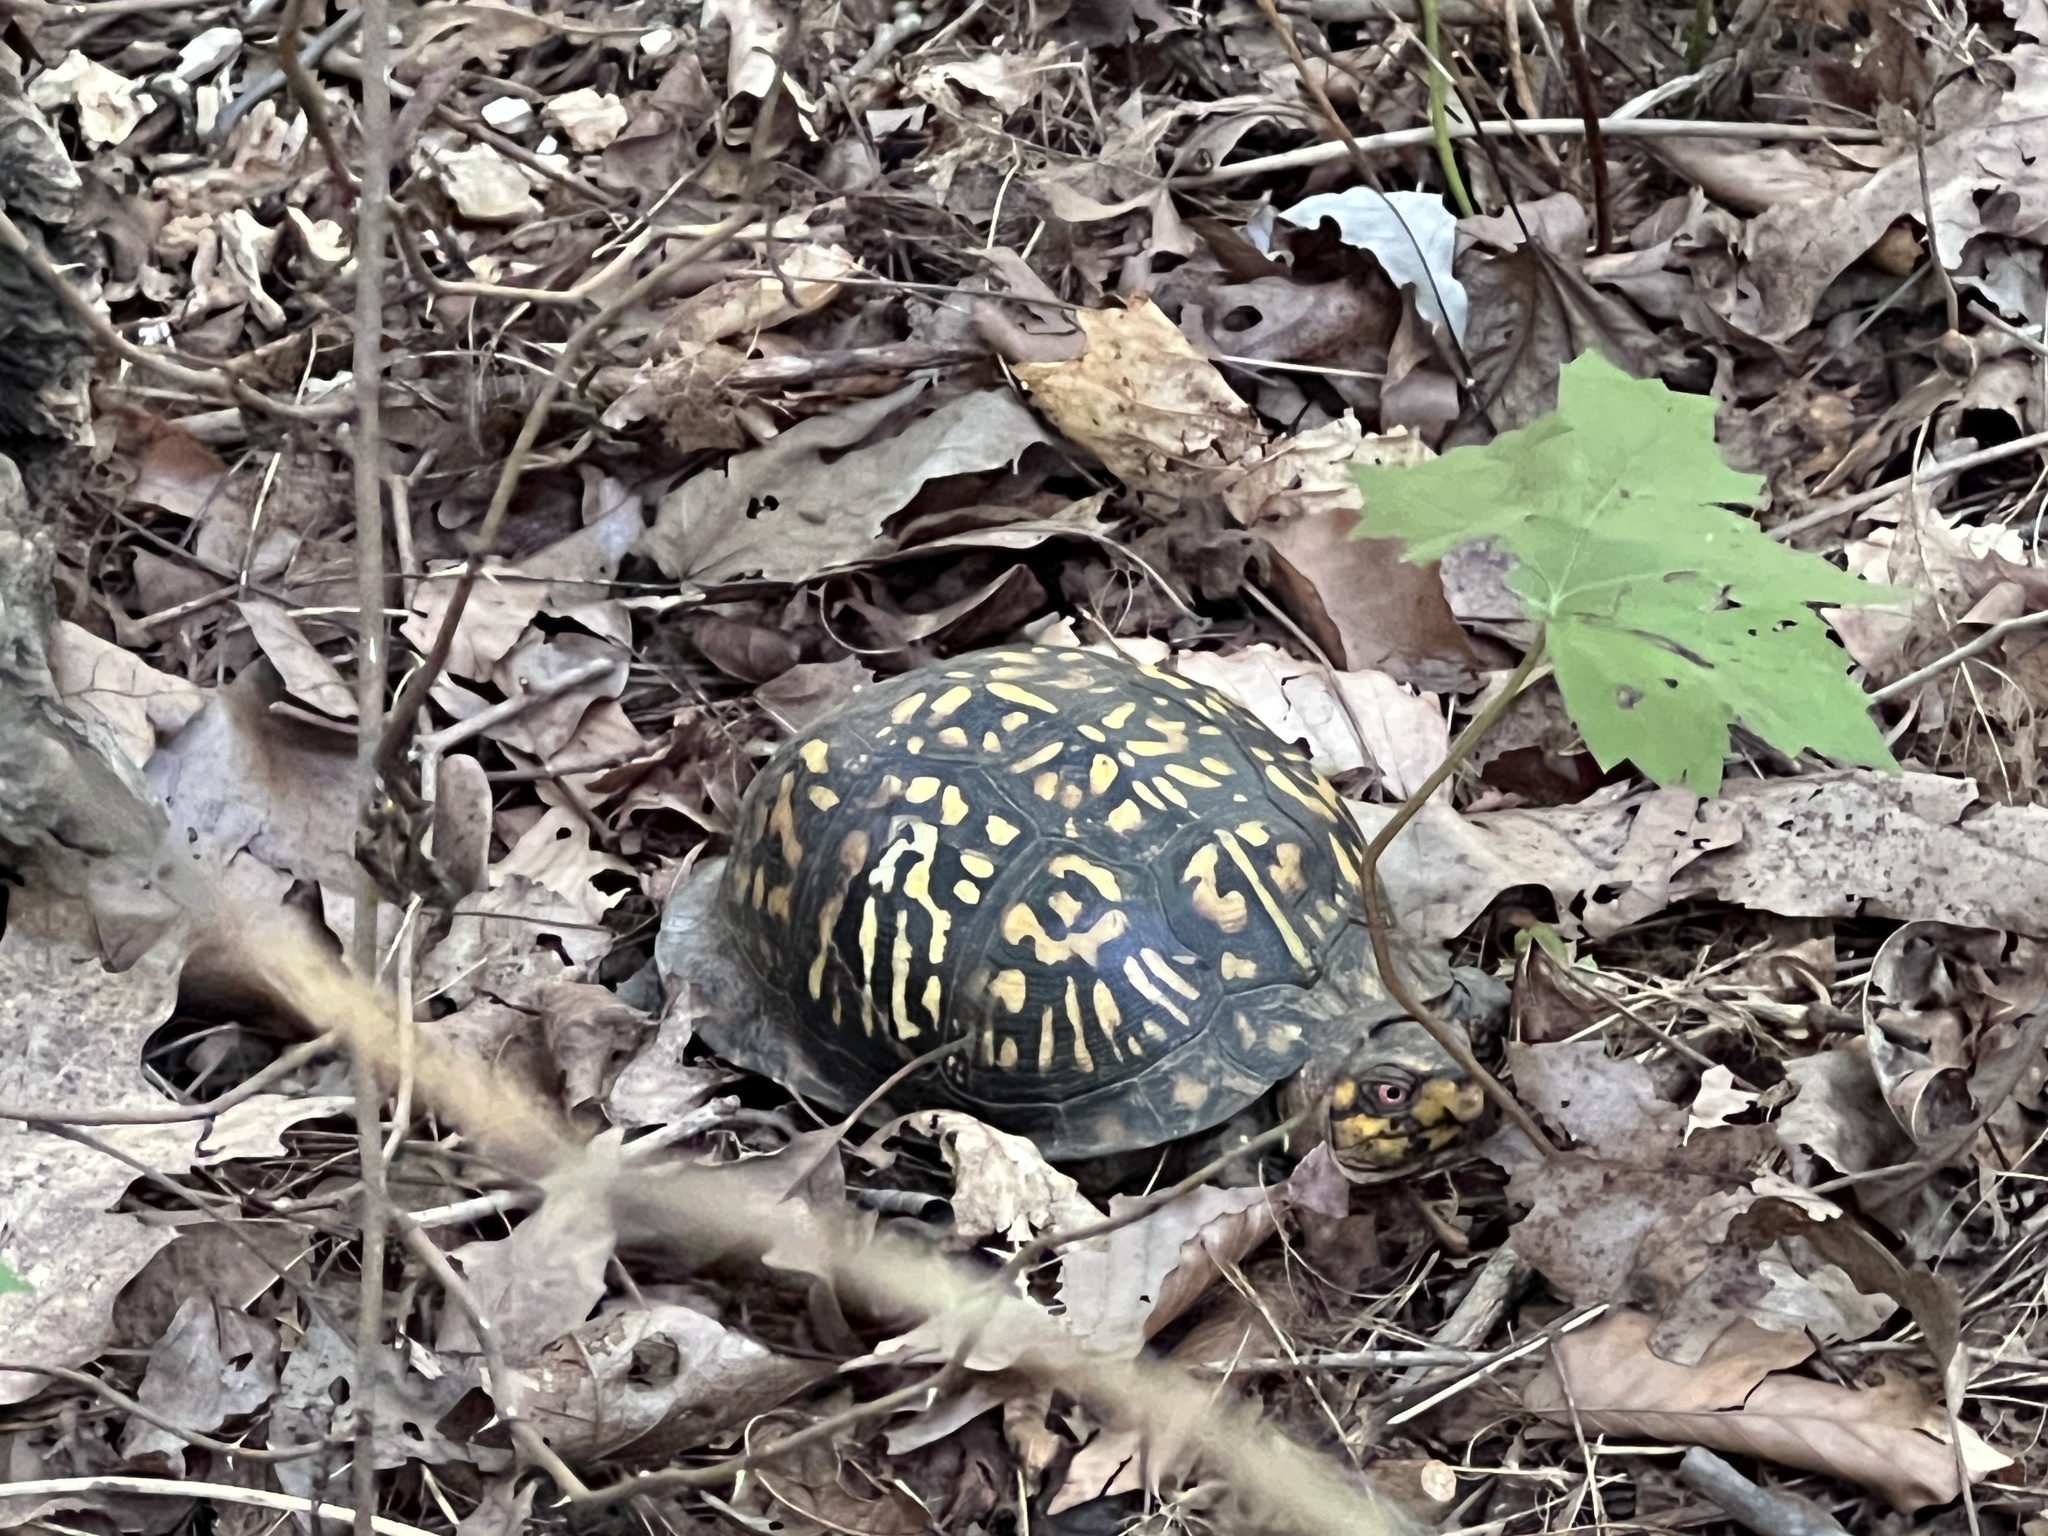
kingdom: Animalia
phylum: Chordata
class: Testudines
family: Emydidae
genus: Terrapene
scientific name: Terrapene carolina
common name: Common box turtle
